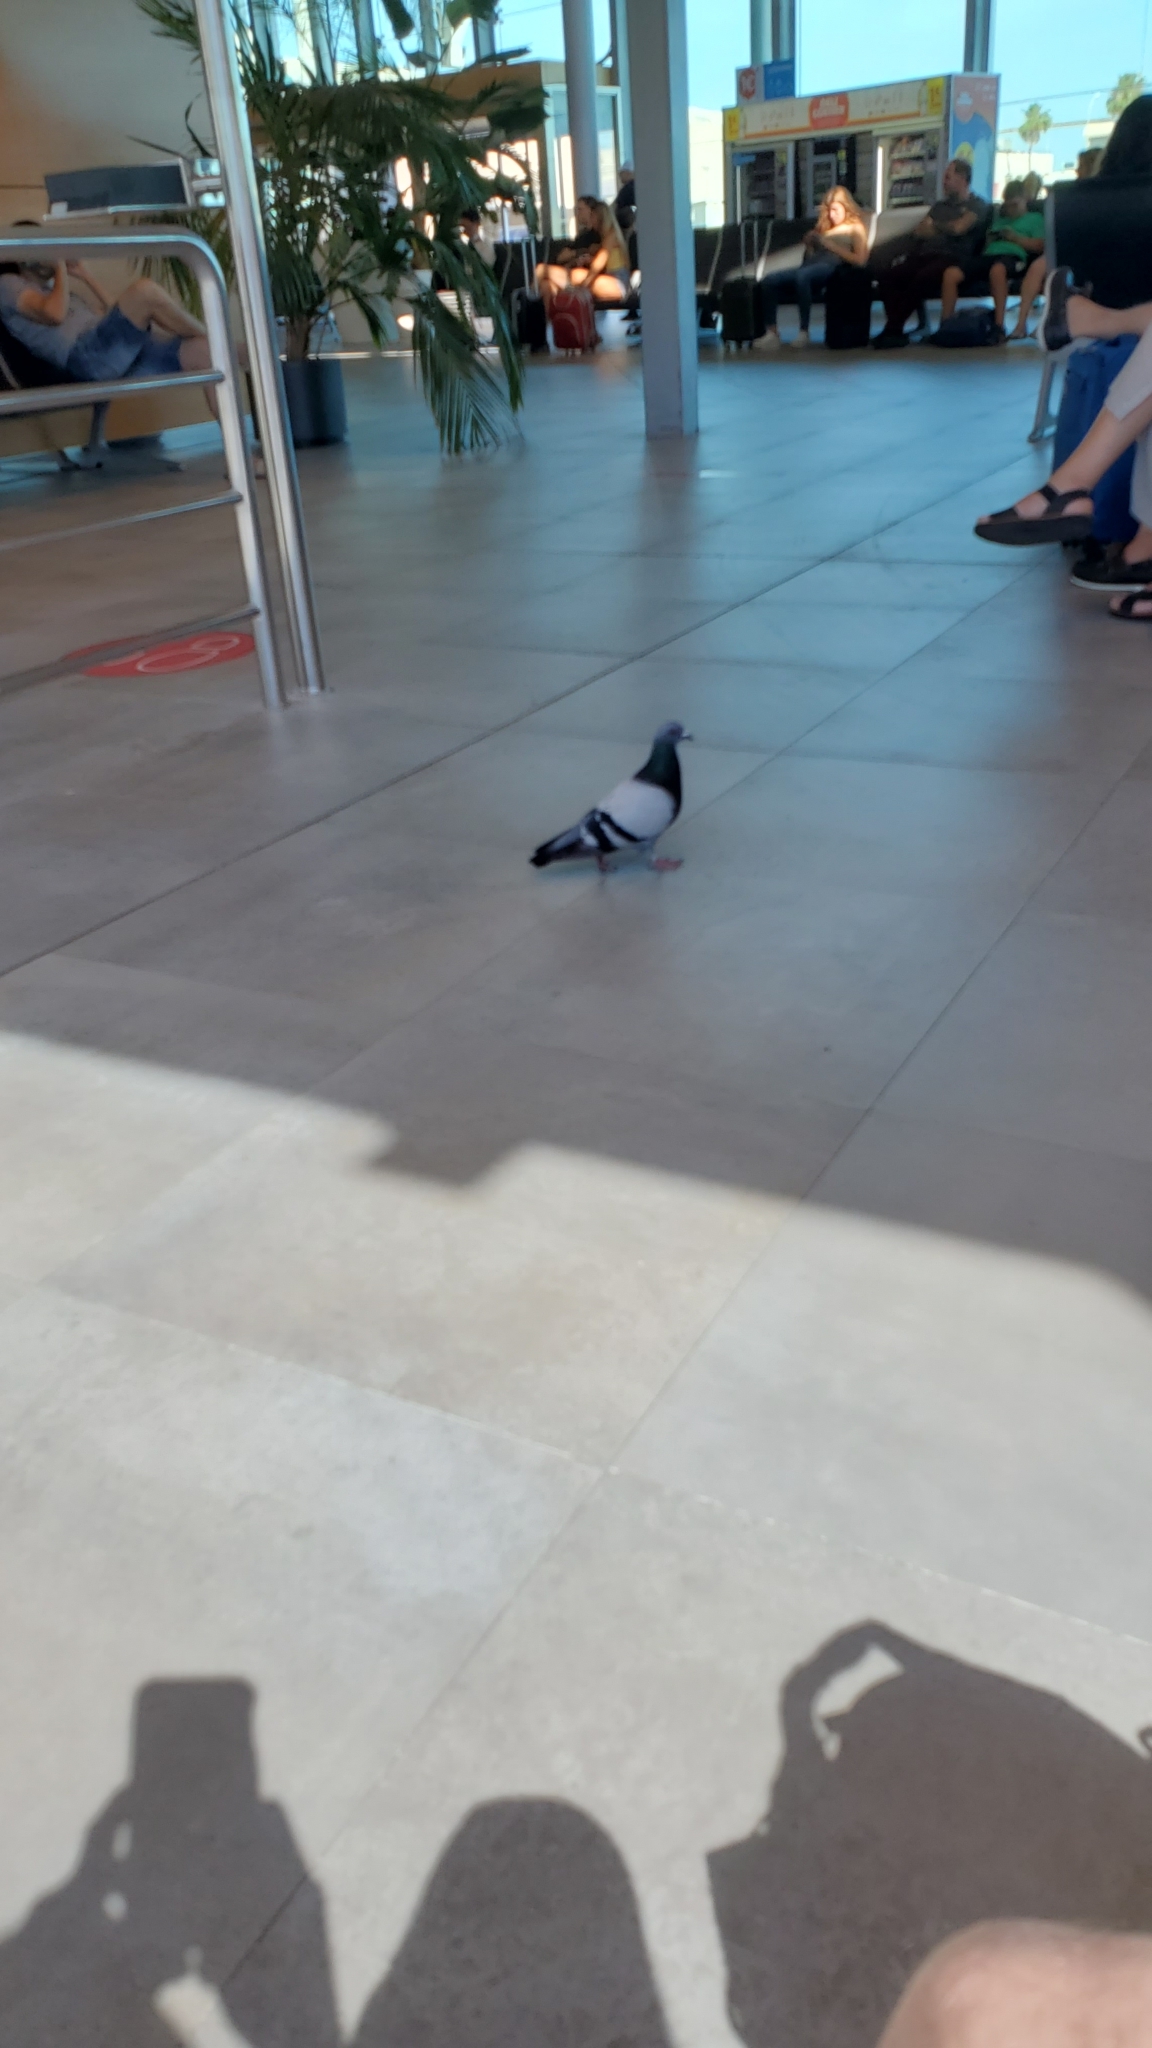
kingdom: Animalia
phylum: Chordata
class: Aves
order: Columbiformes
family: Columbidae
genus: Columba
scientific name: Columba livia
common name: Rock pigeon
